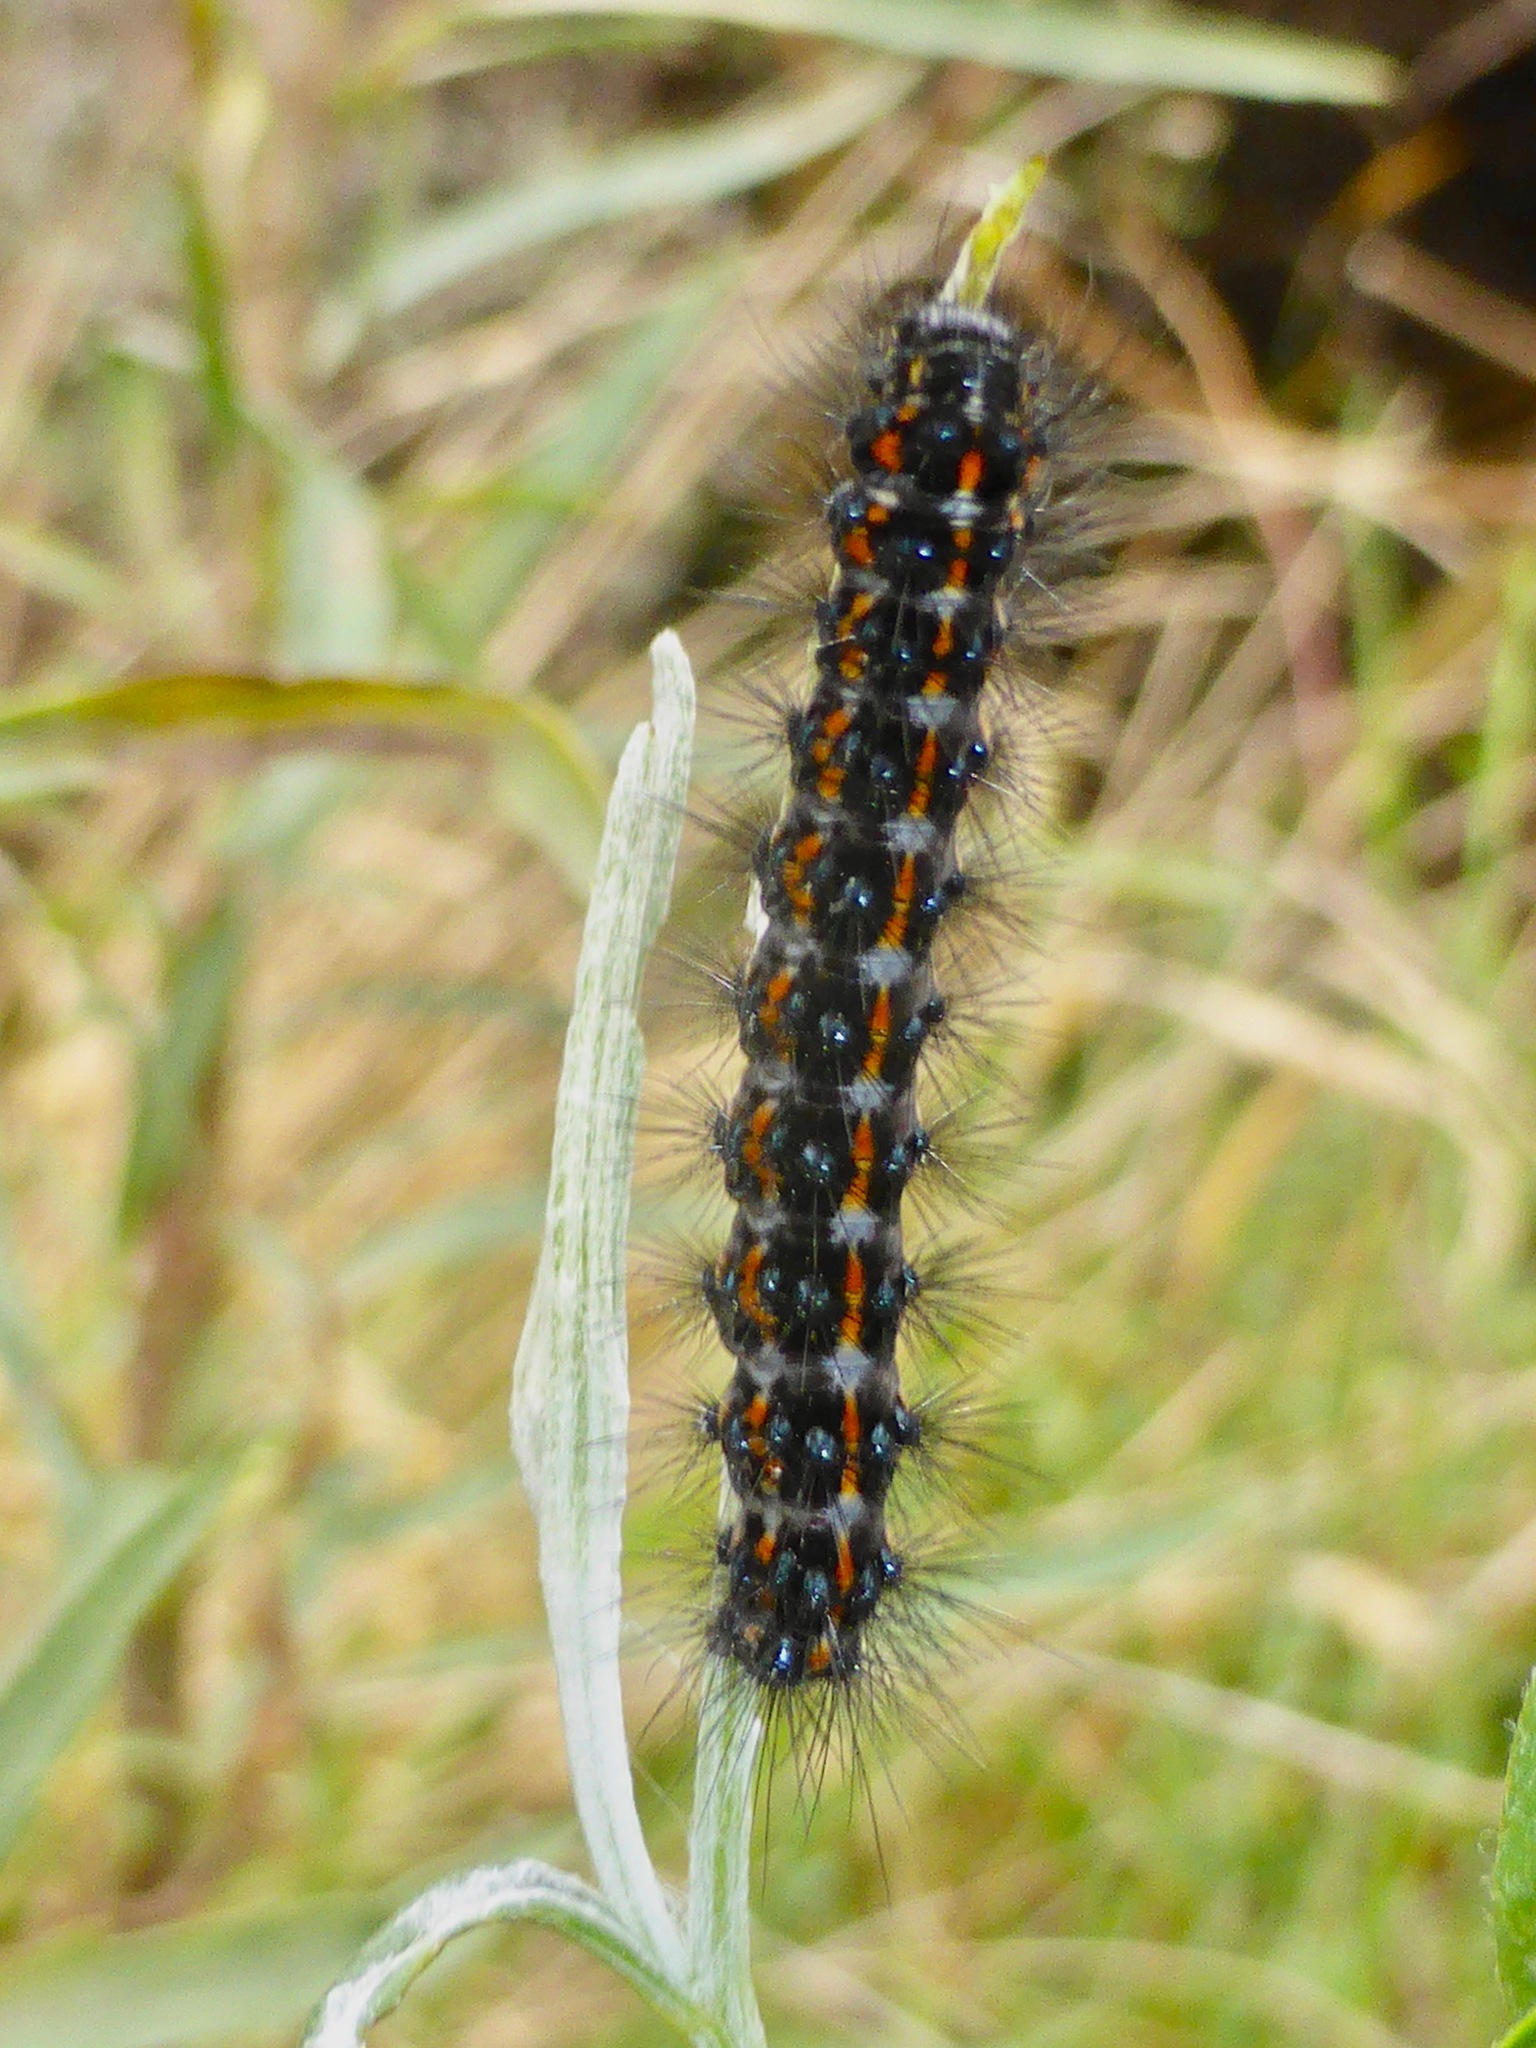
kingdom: Animalia
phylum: Arthropoda
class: Insecta
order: Lepidoptera
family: Erebidae
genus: Nyctemera
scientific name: Nyctemera annulatum
